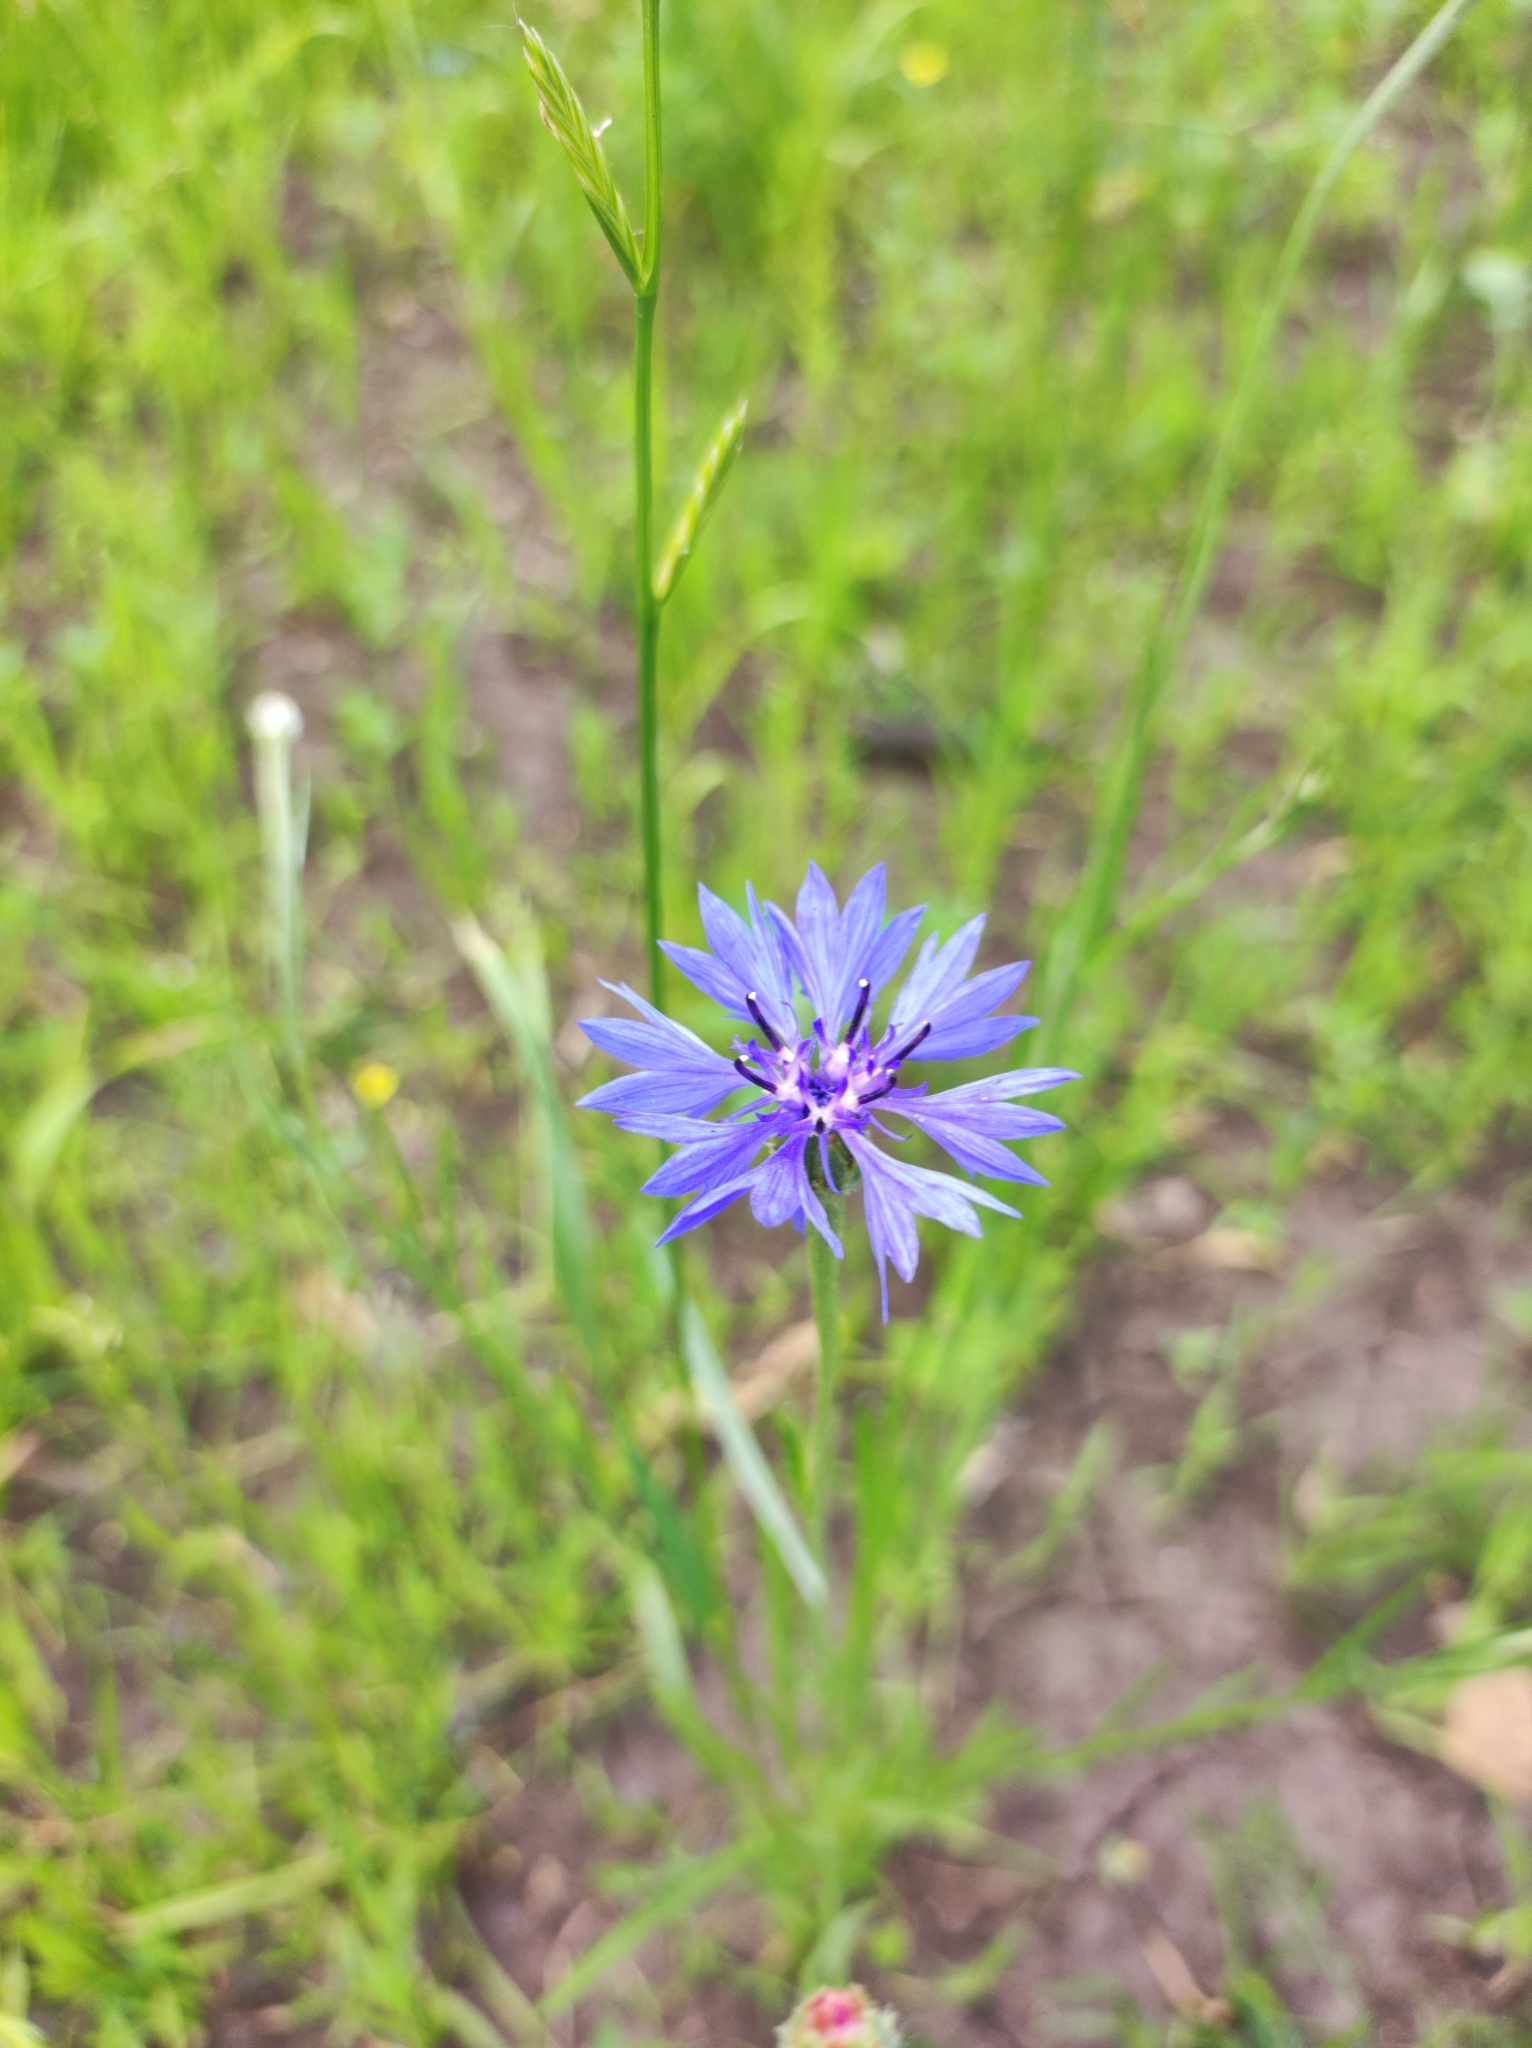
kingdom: Plantae
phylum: Tracheophyta
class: Magnoliopsida
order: Asterales
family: Asteraceae
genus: Centaurea
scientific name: Centaurea cyanus
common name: Cornflower
